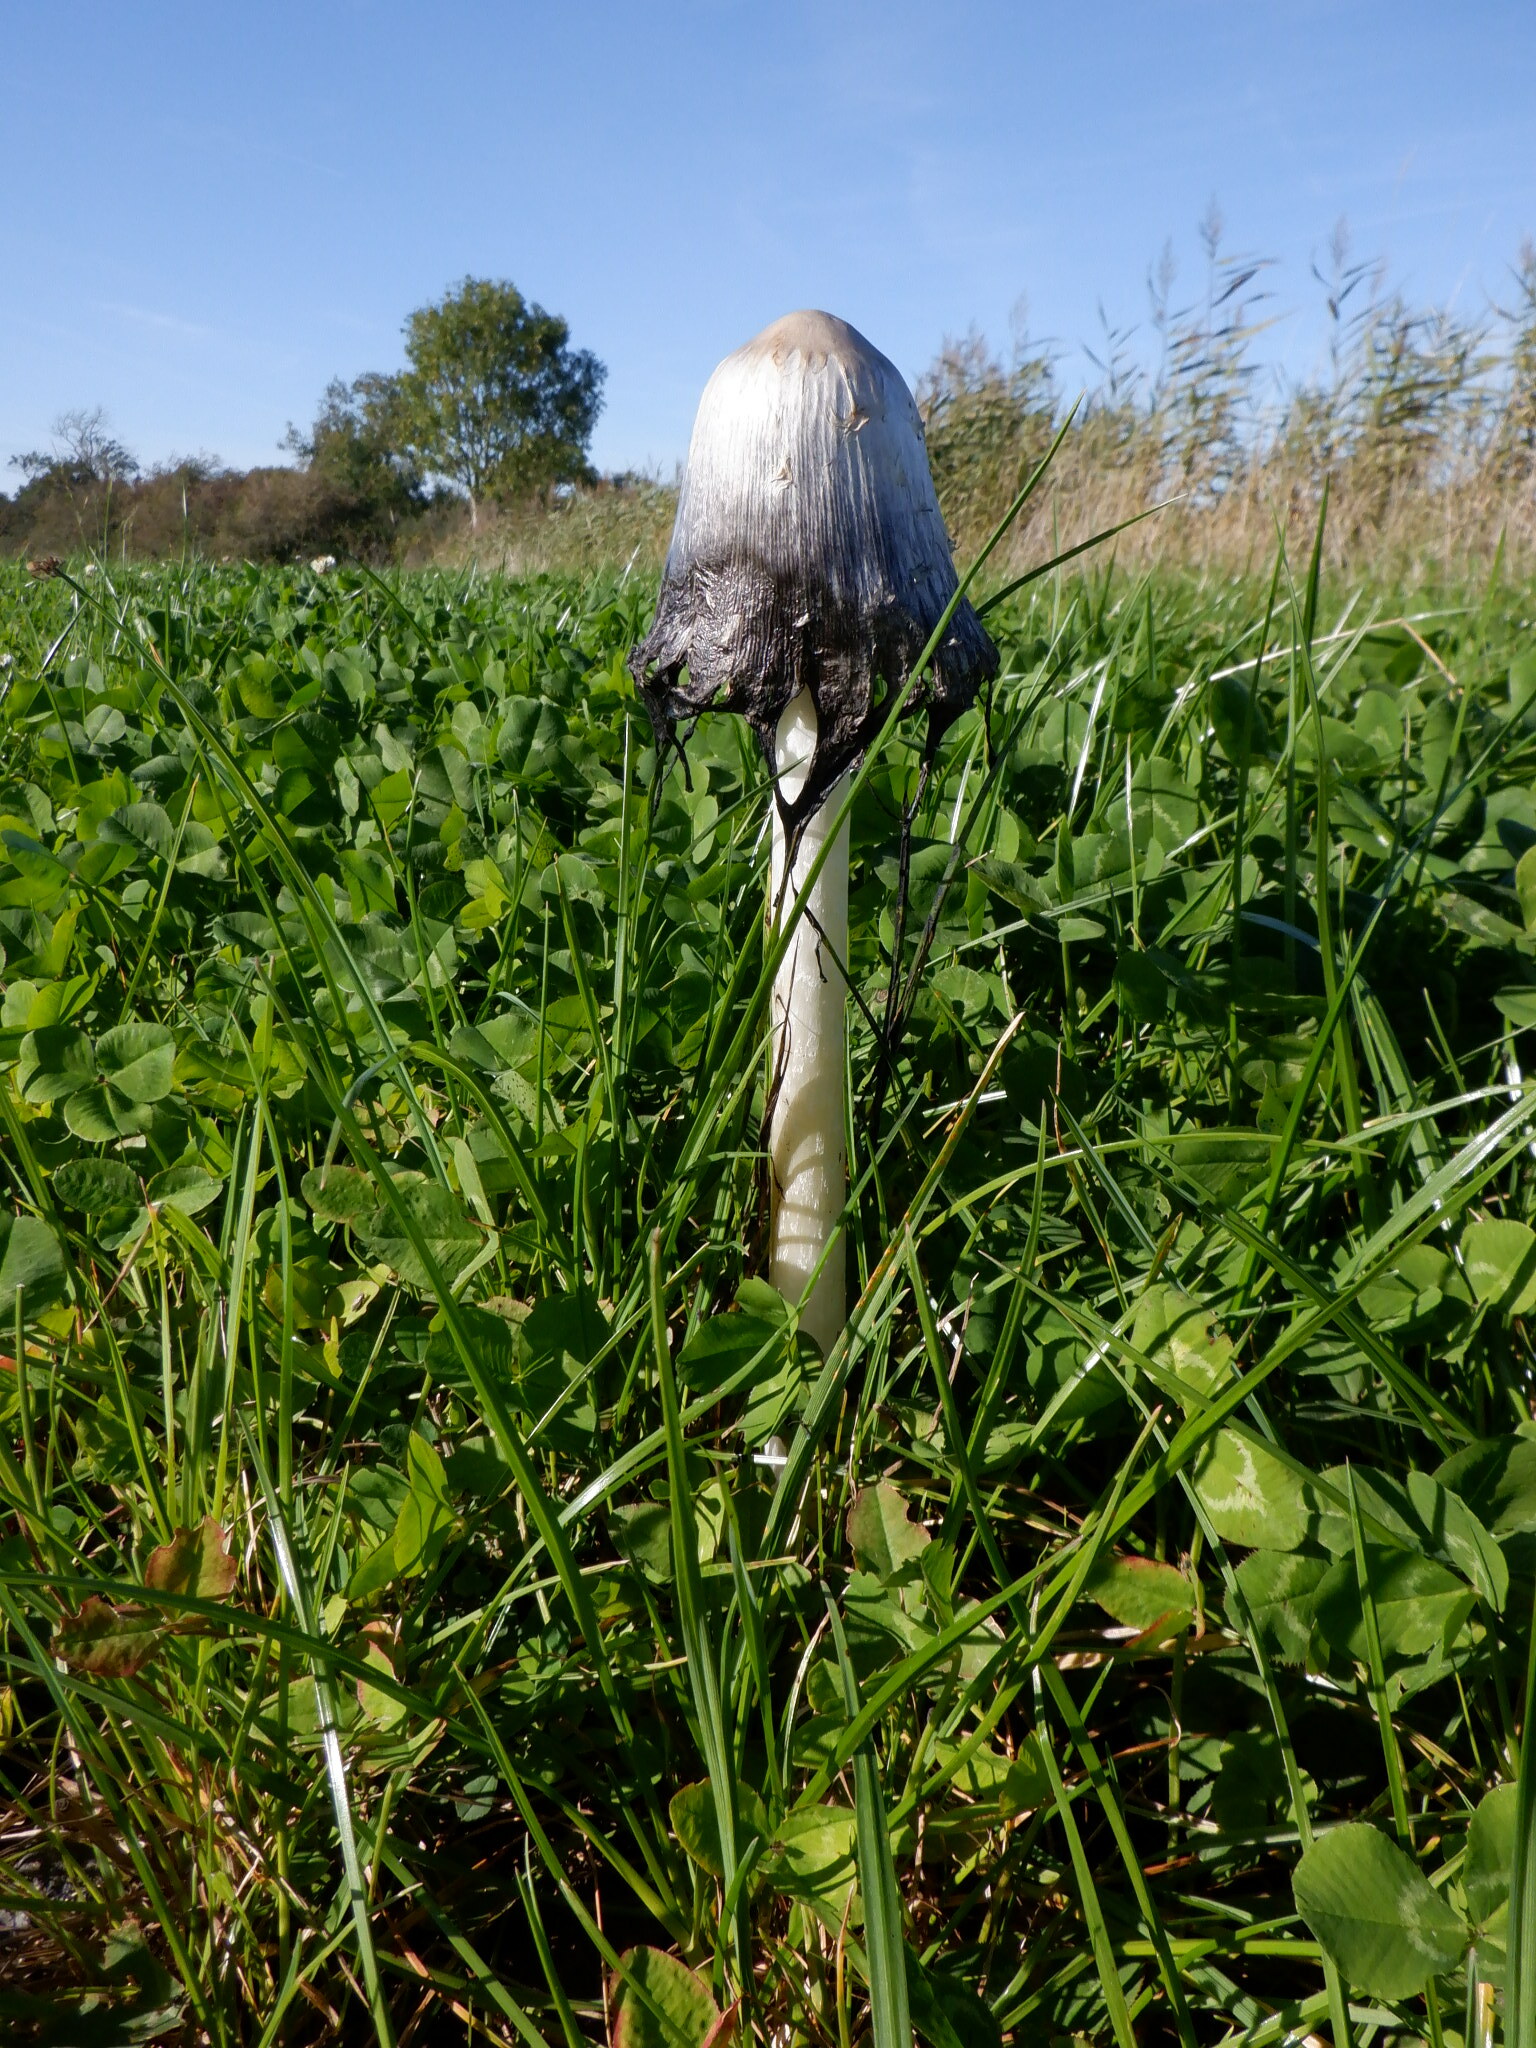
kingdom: Fungi
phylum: Basidiomycota
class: Agaricomycetes
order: Agaricales
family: Agaricaceae
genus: Coprinus
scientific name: Coprinus comatus
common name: Lawyer's wig
